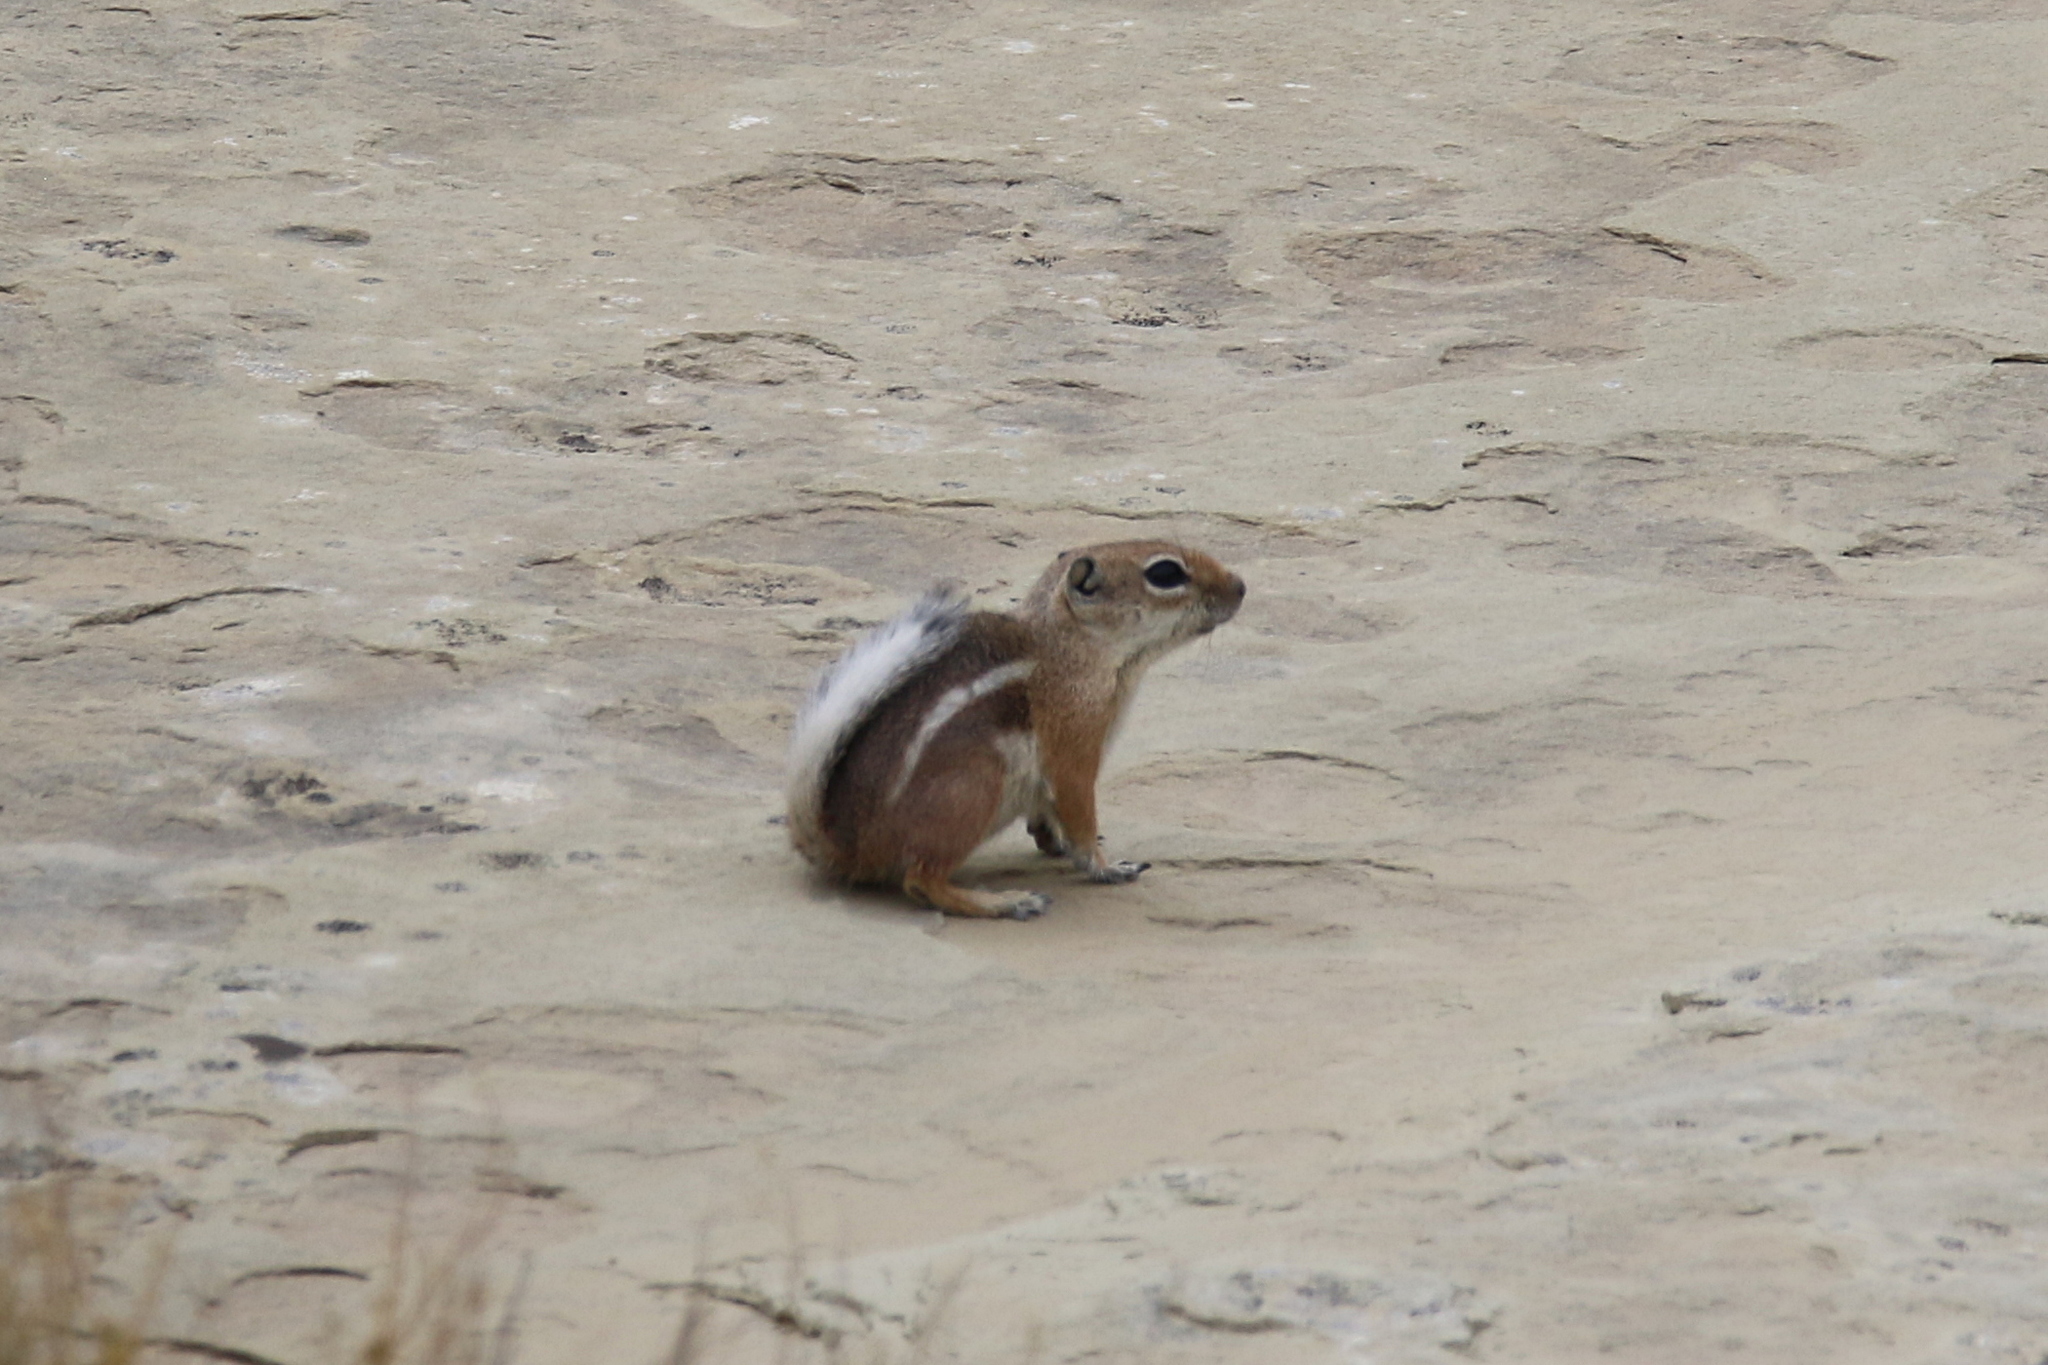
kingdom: Animalia
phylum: Chordata
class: Mammalia
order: Rodentia
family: Sciuridae
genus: Ammospermophilus
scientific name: Ammospermophilus leucurus
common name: White-tailed antelope squirrel
